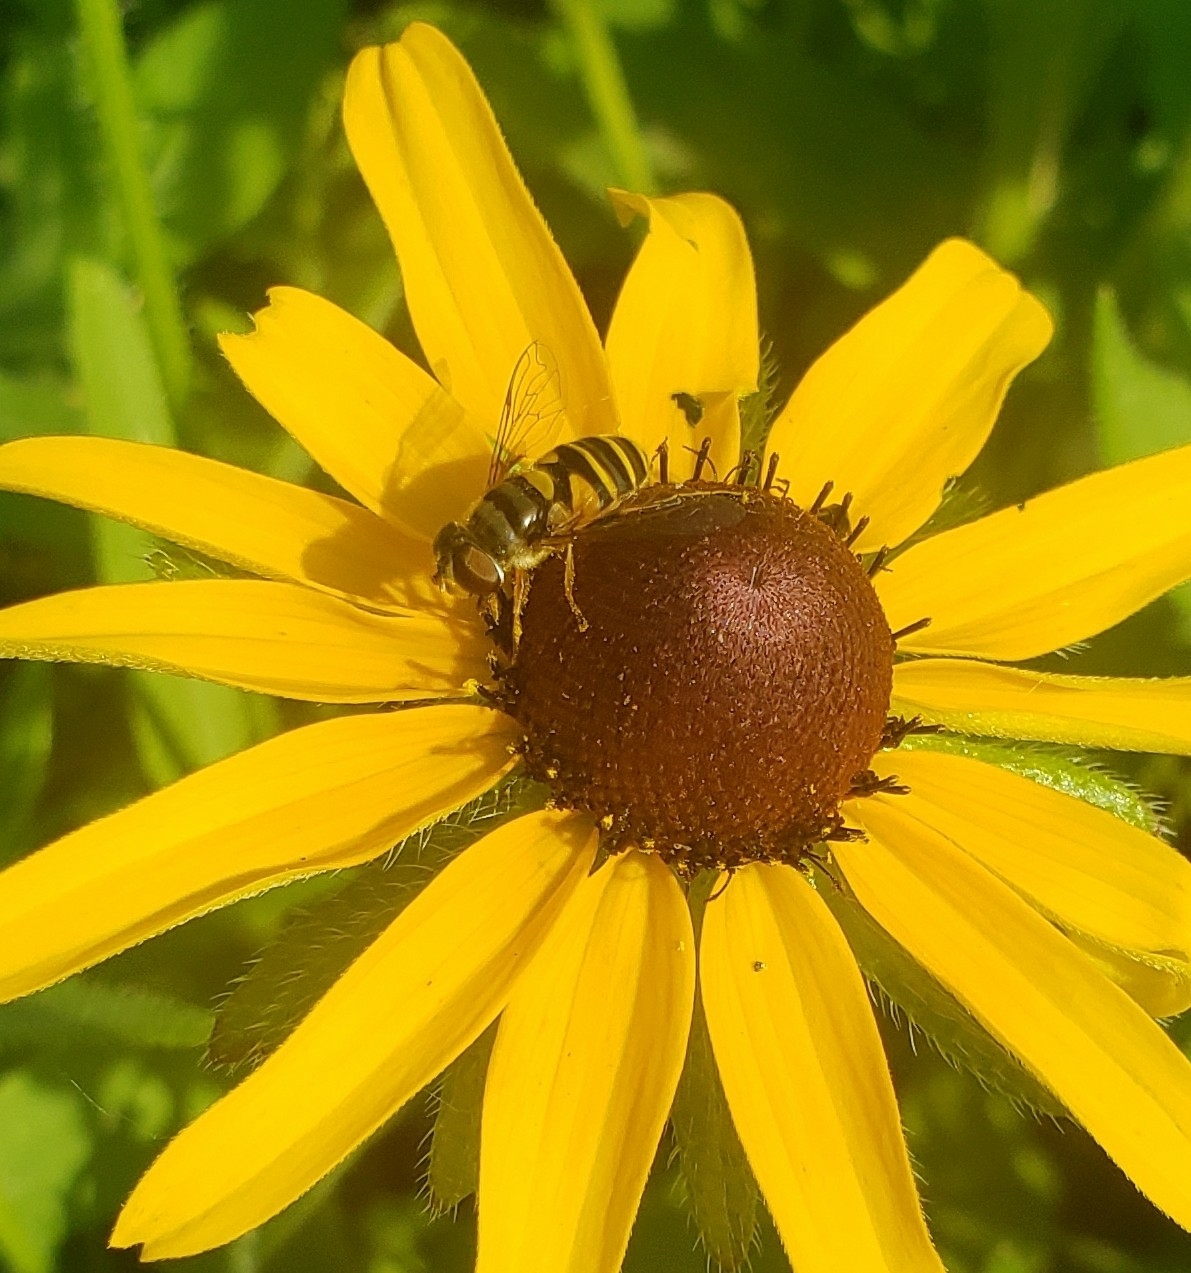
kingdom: Animalia
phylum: Arthropoda
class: Insecta
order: Diptera
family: Syrphidae
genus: Eristalis
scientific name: Eristalis transversa
